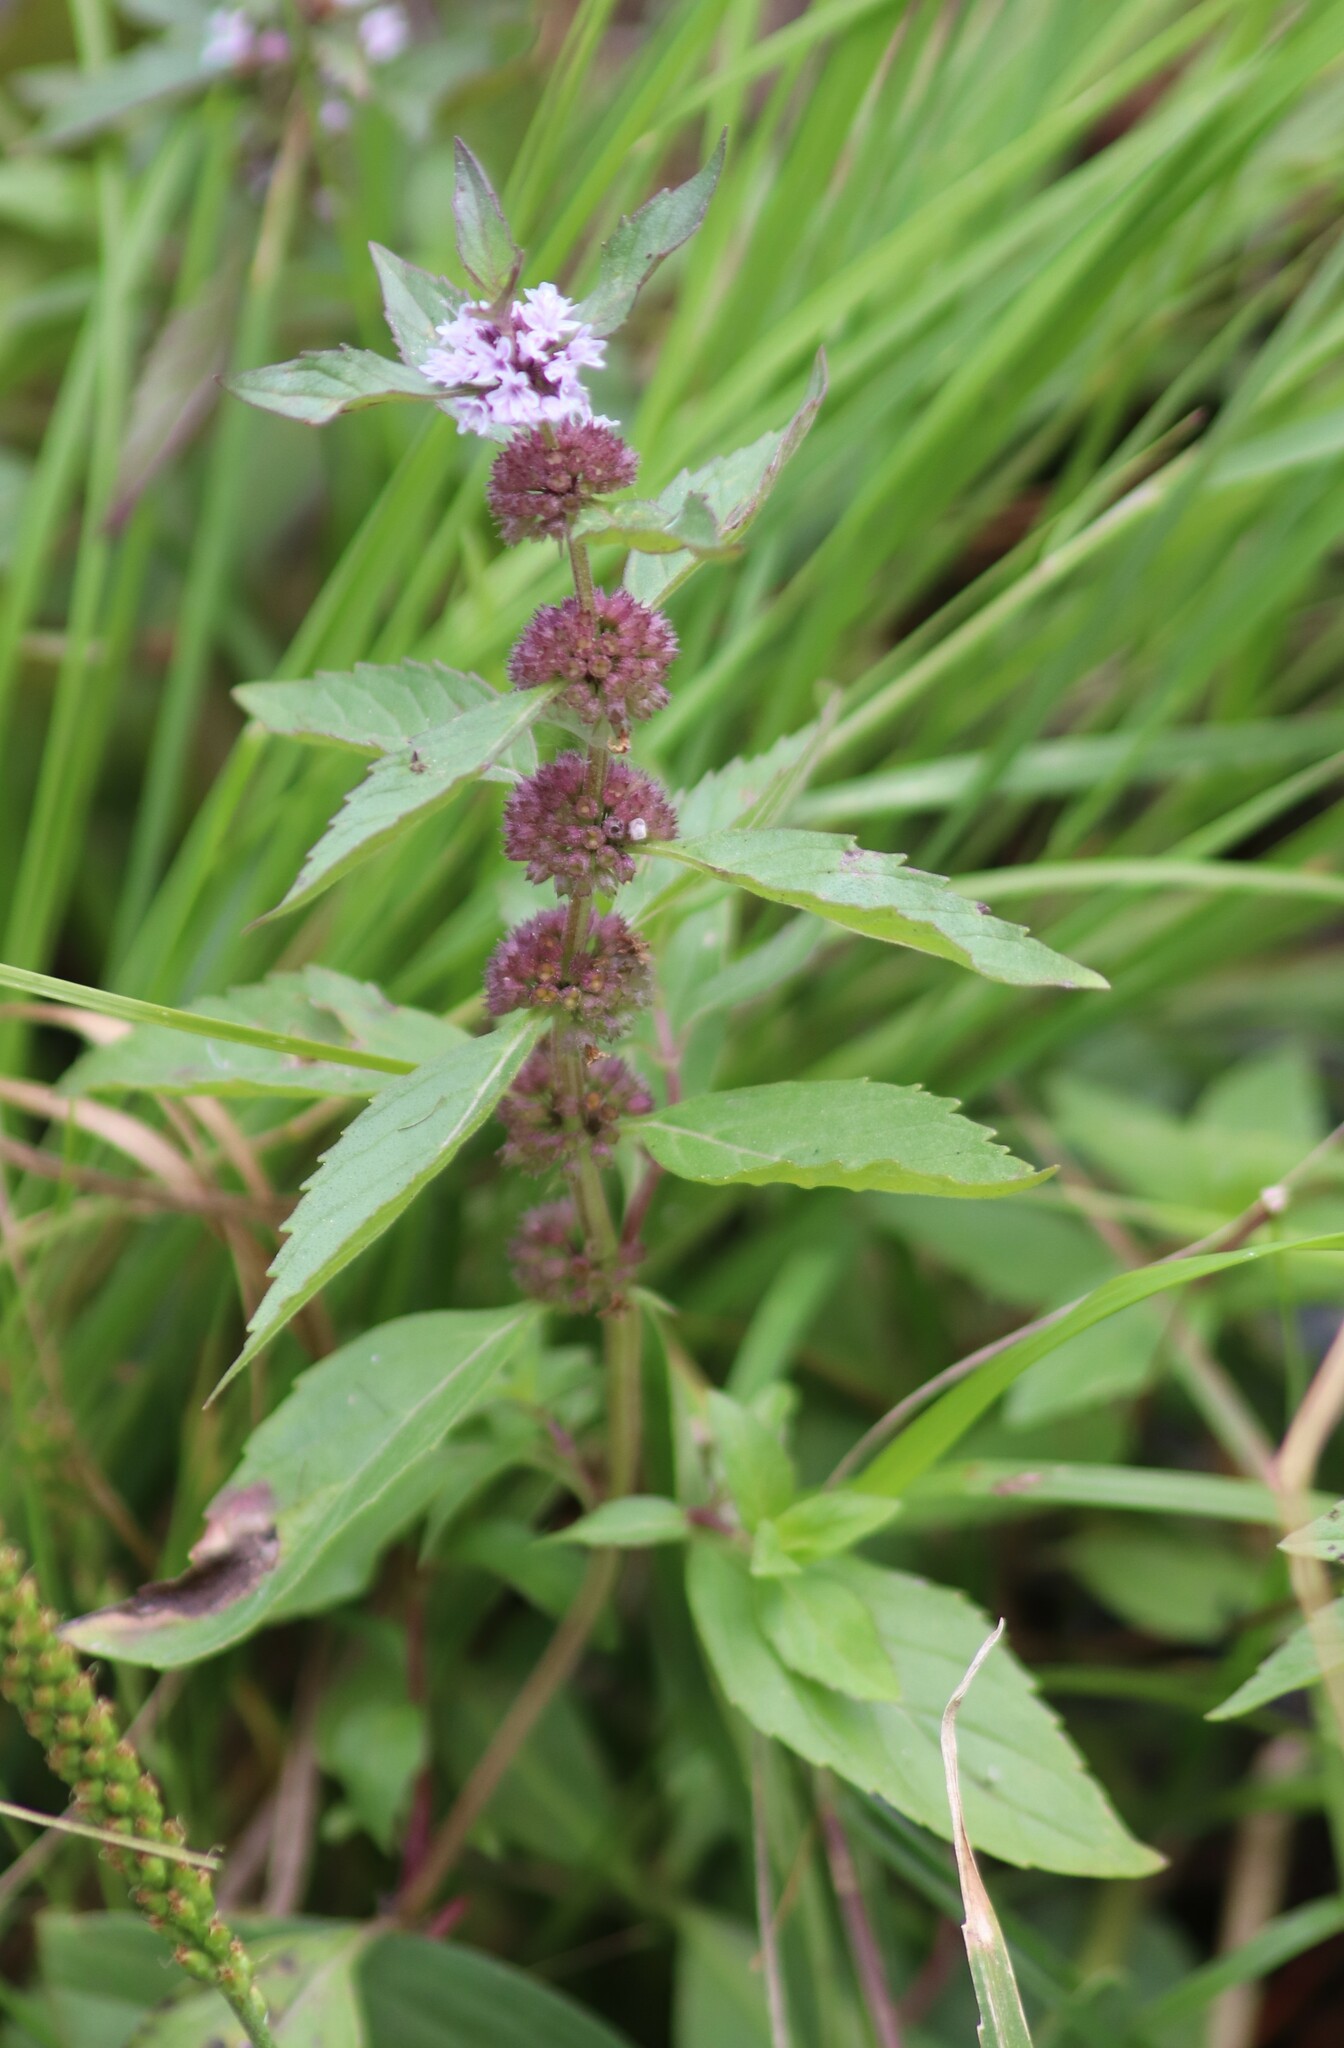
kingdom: Plantae
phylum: Tracheophyta
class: Magnoliopsida
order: Lamiales
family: Lamiaceae
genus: Mentha
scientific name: Mentha canadensis
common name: American corn mint
